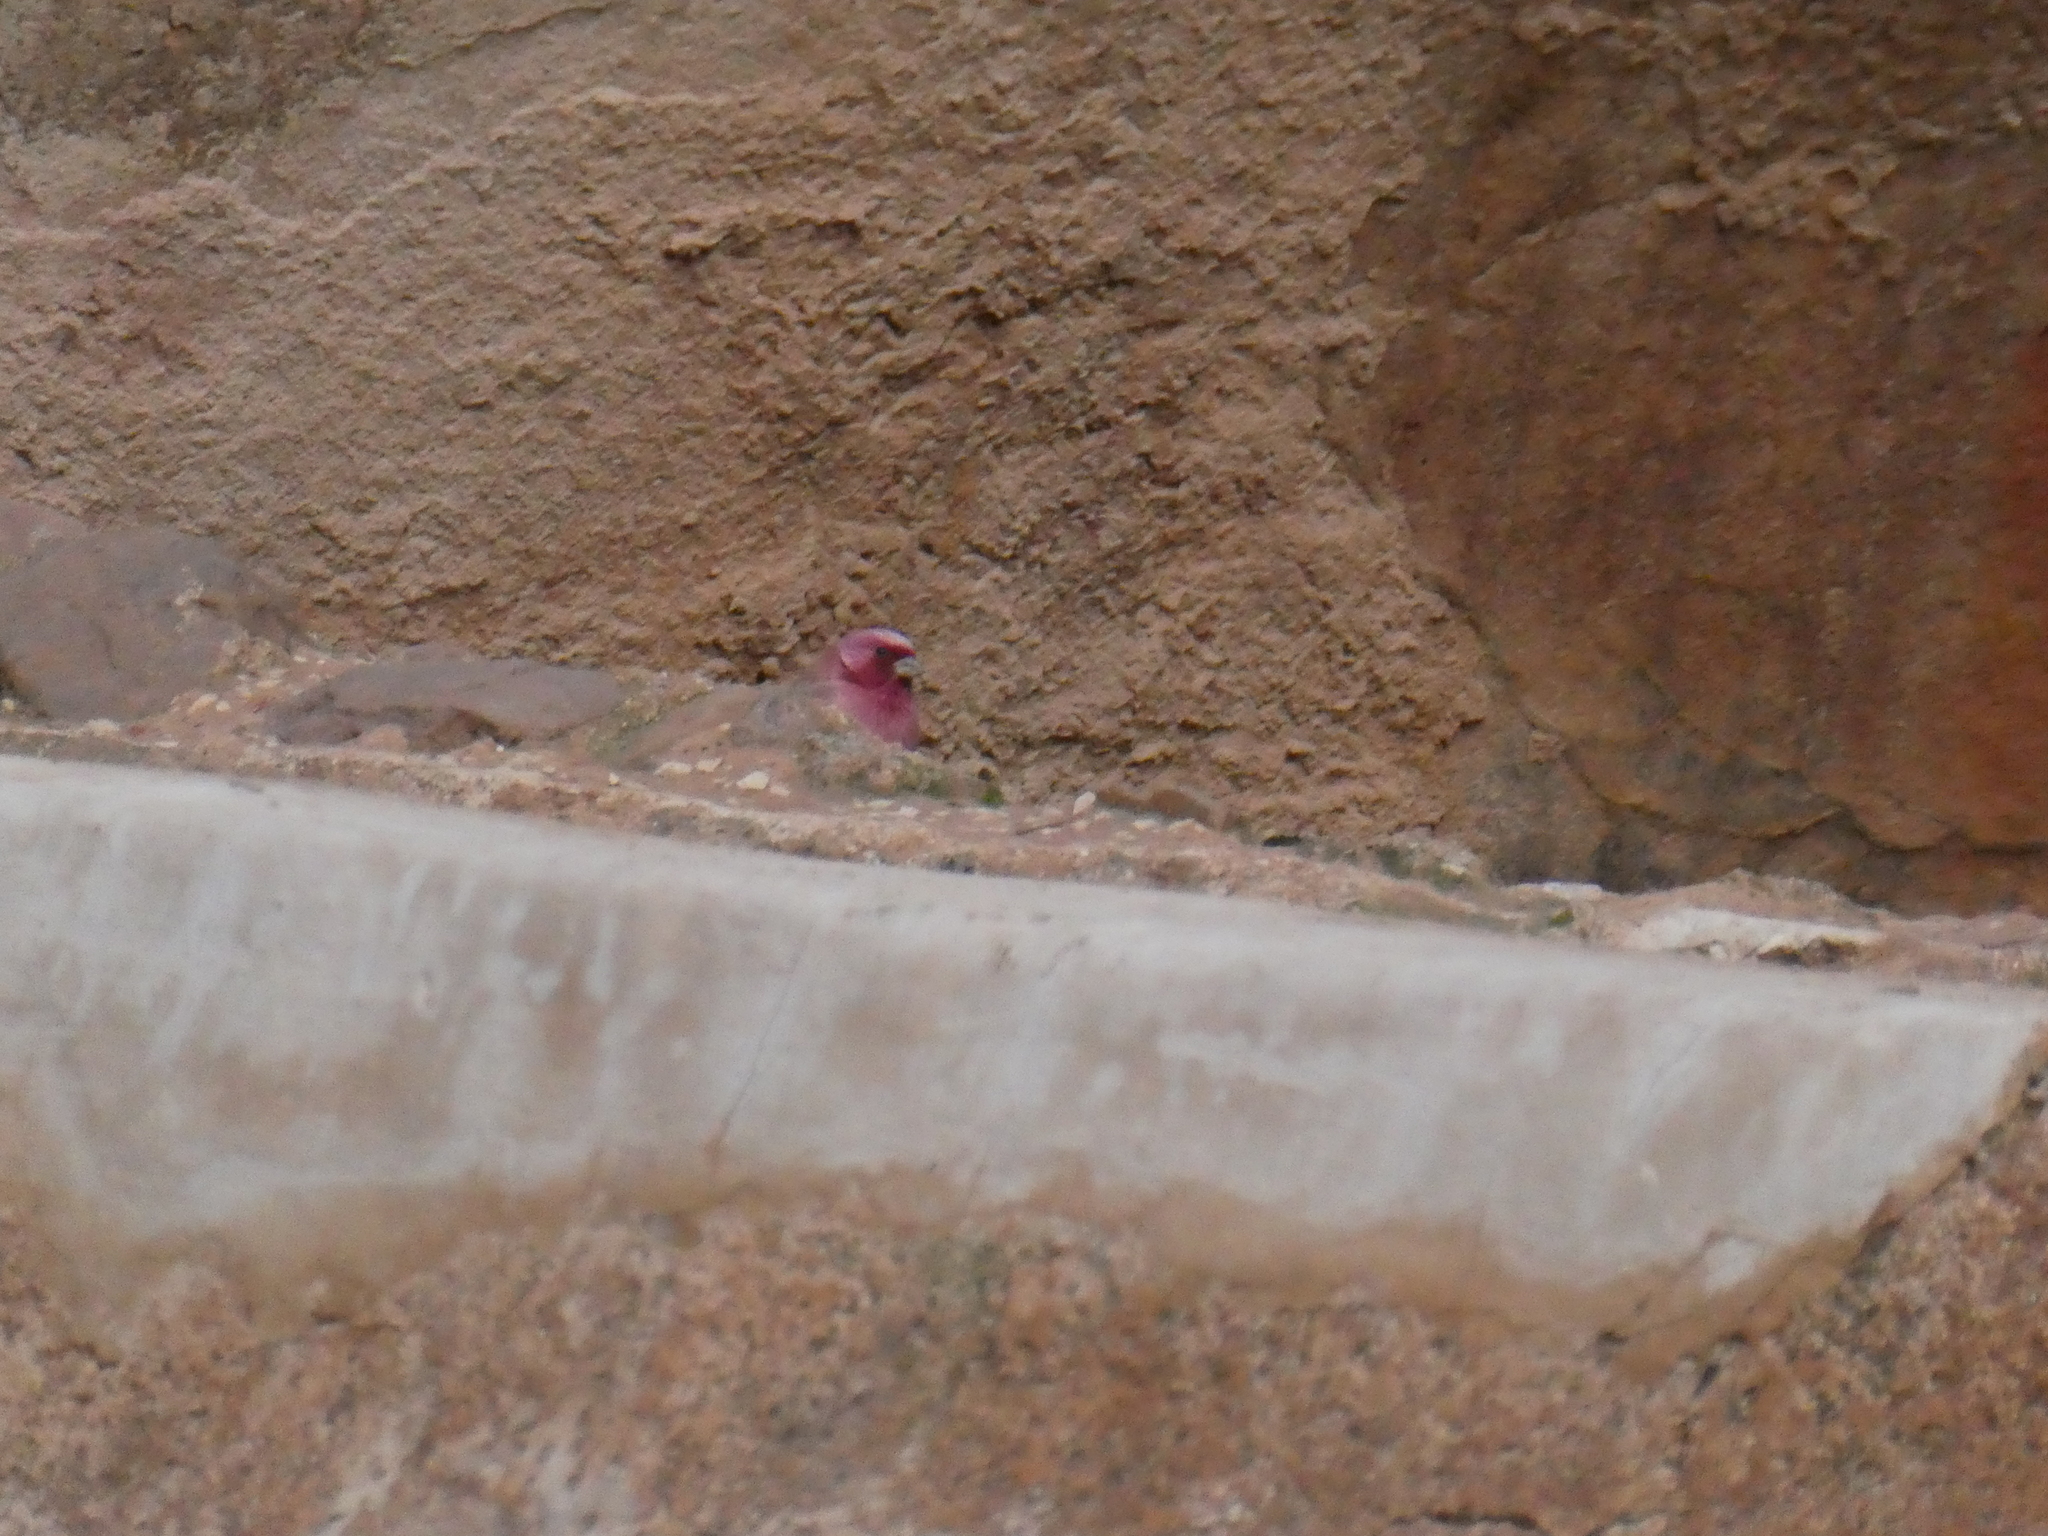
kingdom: Animalia
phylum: Chordata
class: Aves
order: Passeriformes
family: Fringillidae
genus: Carpodacus
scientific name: Carpodacus synoicus
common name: Sinai rosefinch
